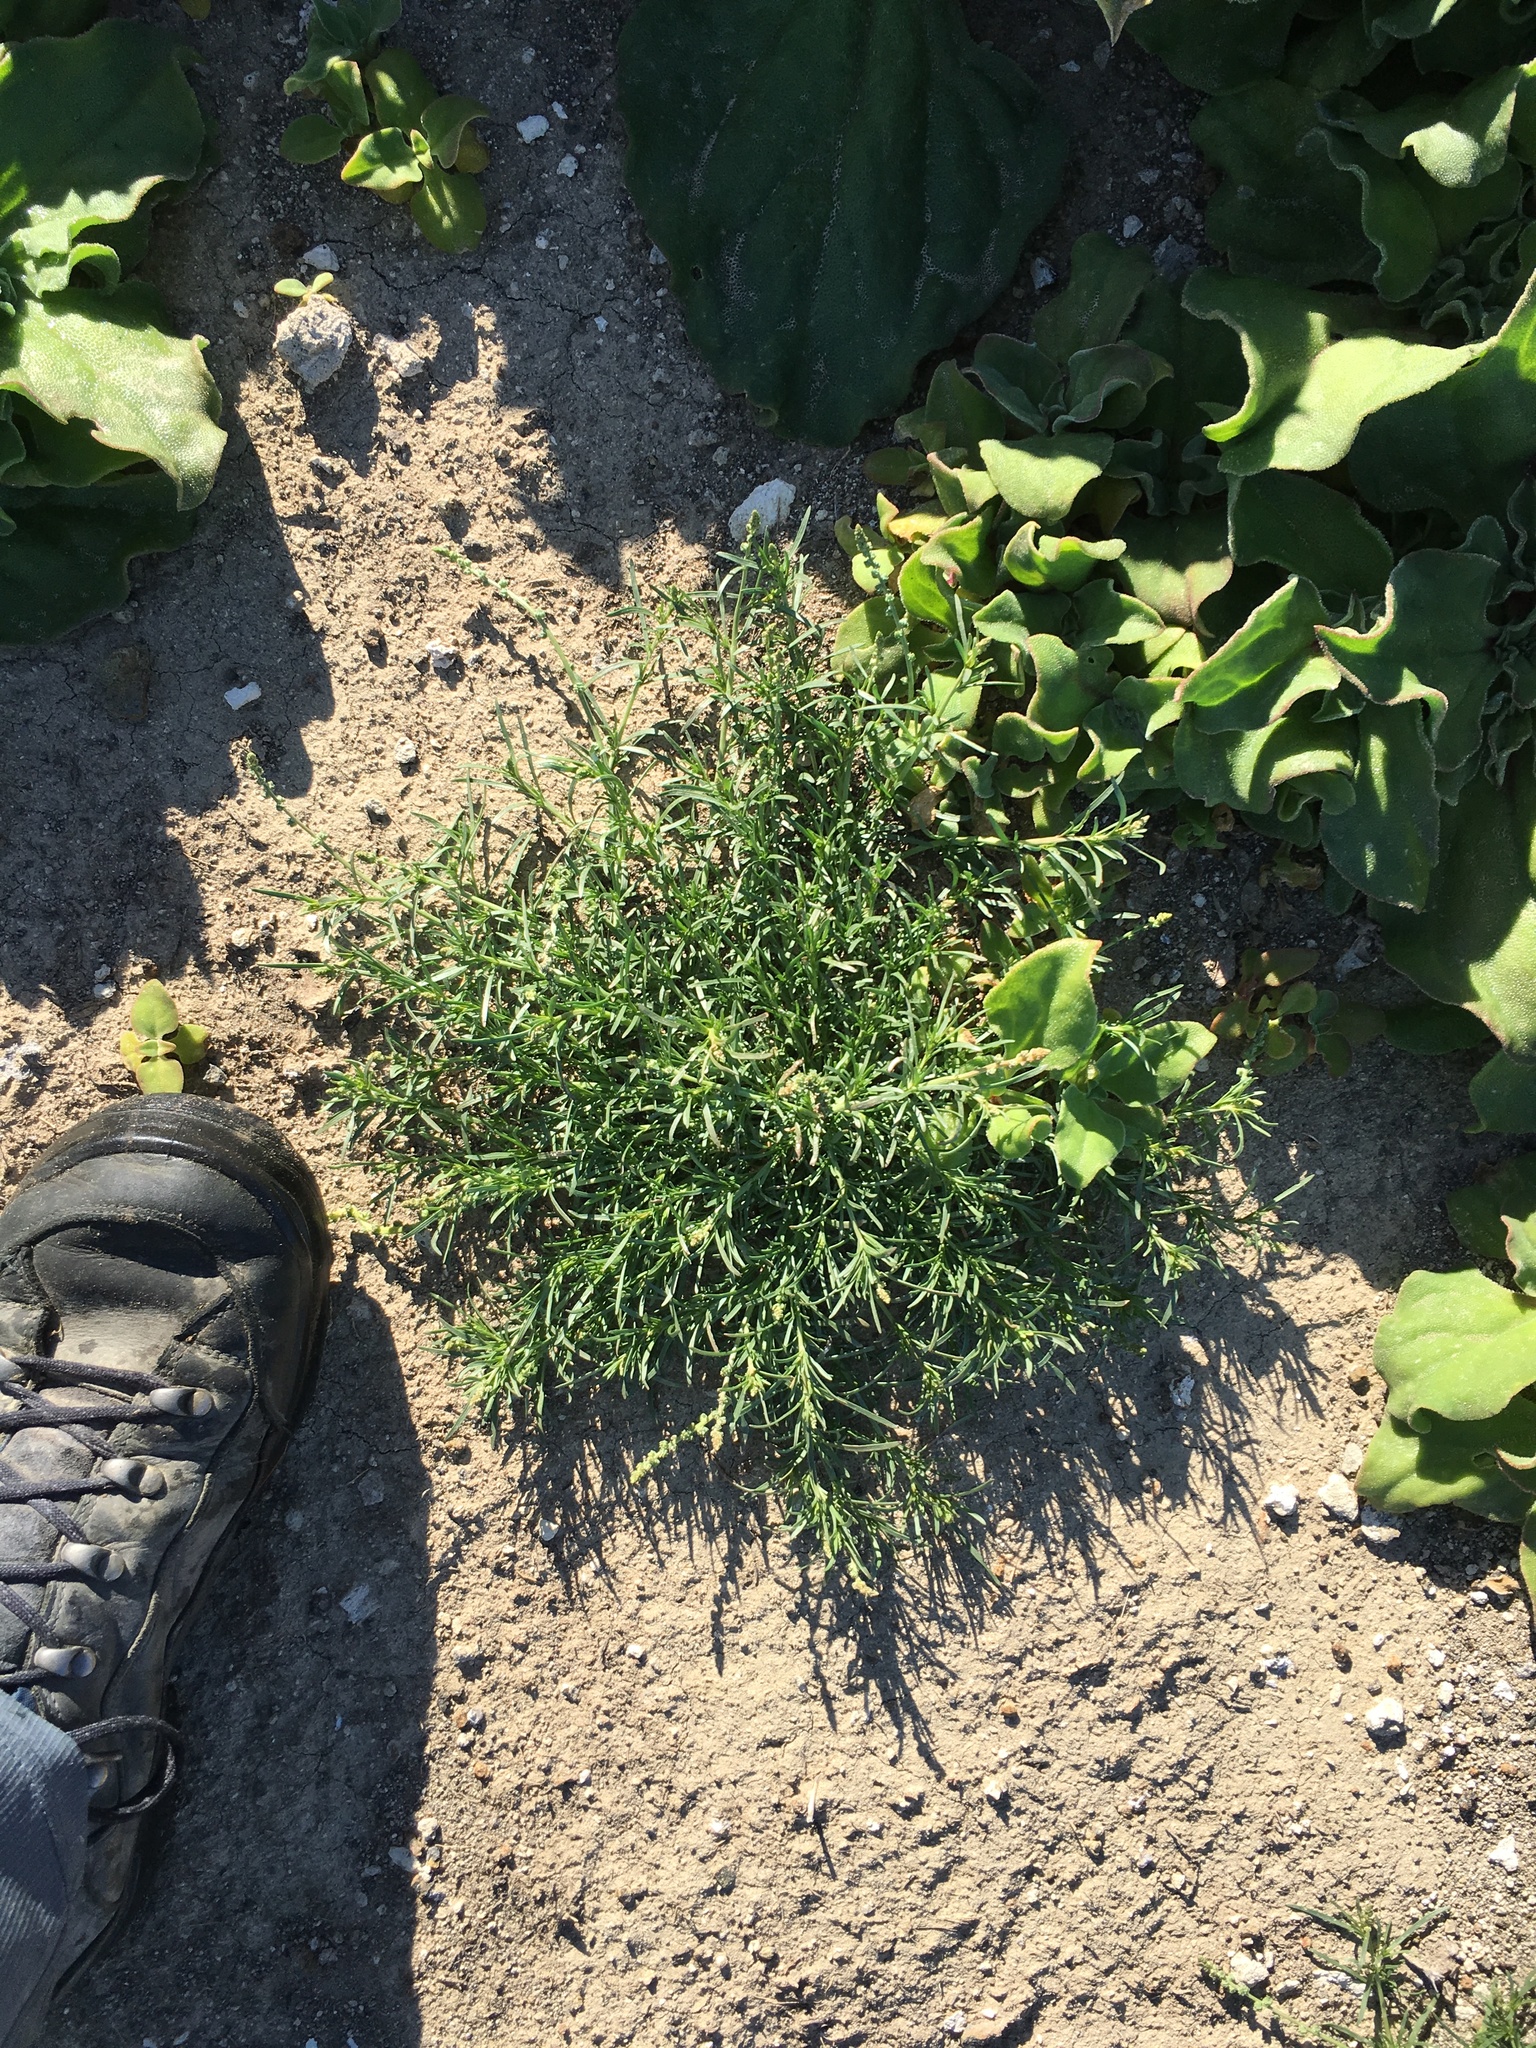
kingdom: Plantae
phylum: Tracheophyta
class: Magnoliopsida
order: Brassicales
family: Resedaceae
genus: Oligomeris
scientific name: Oligomeris linifolia
